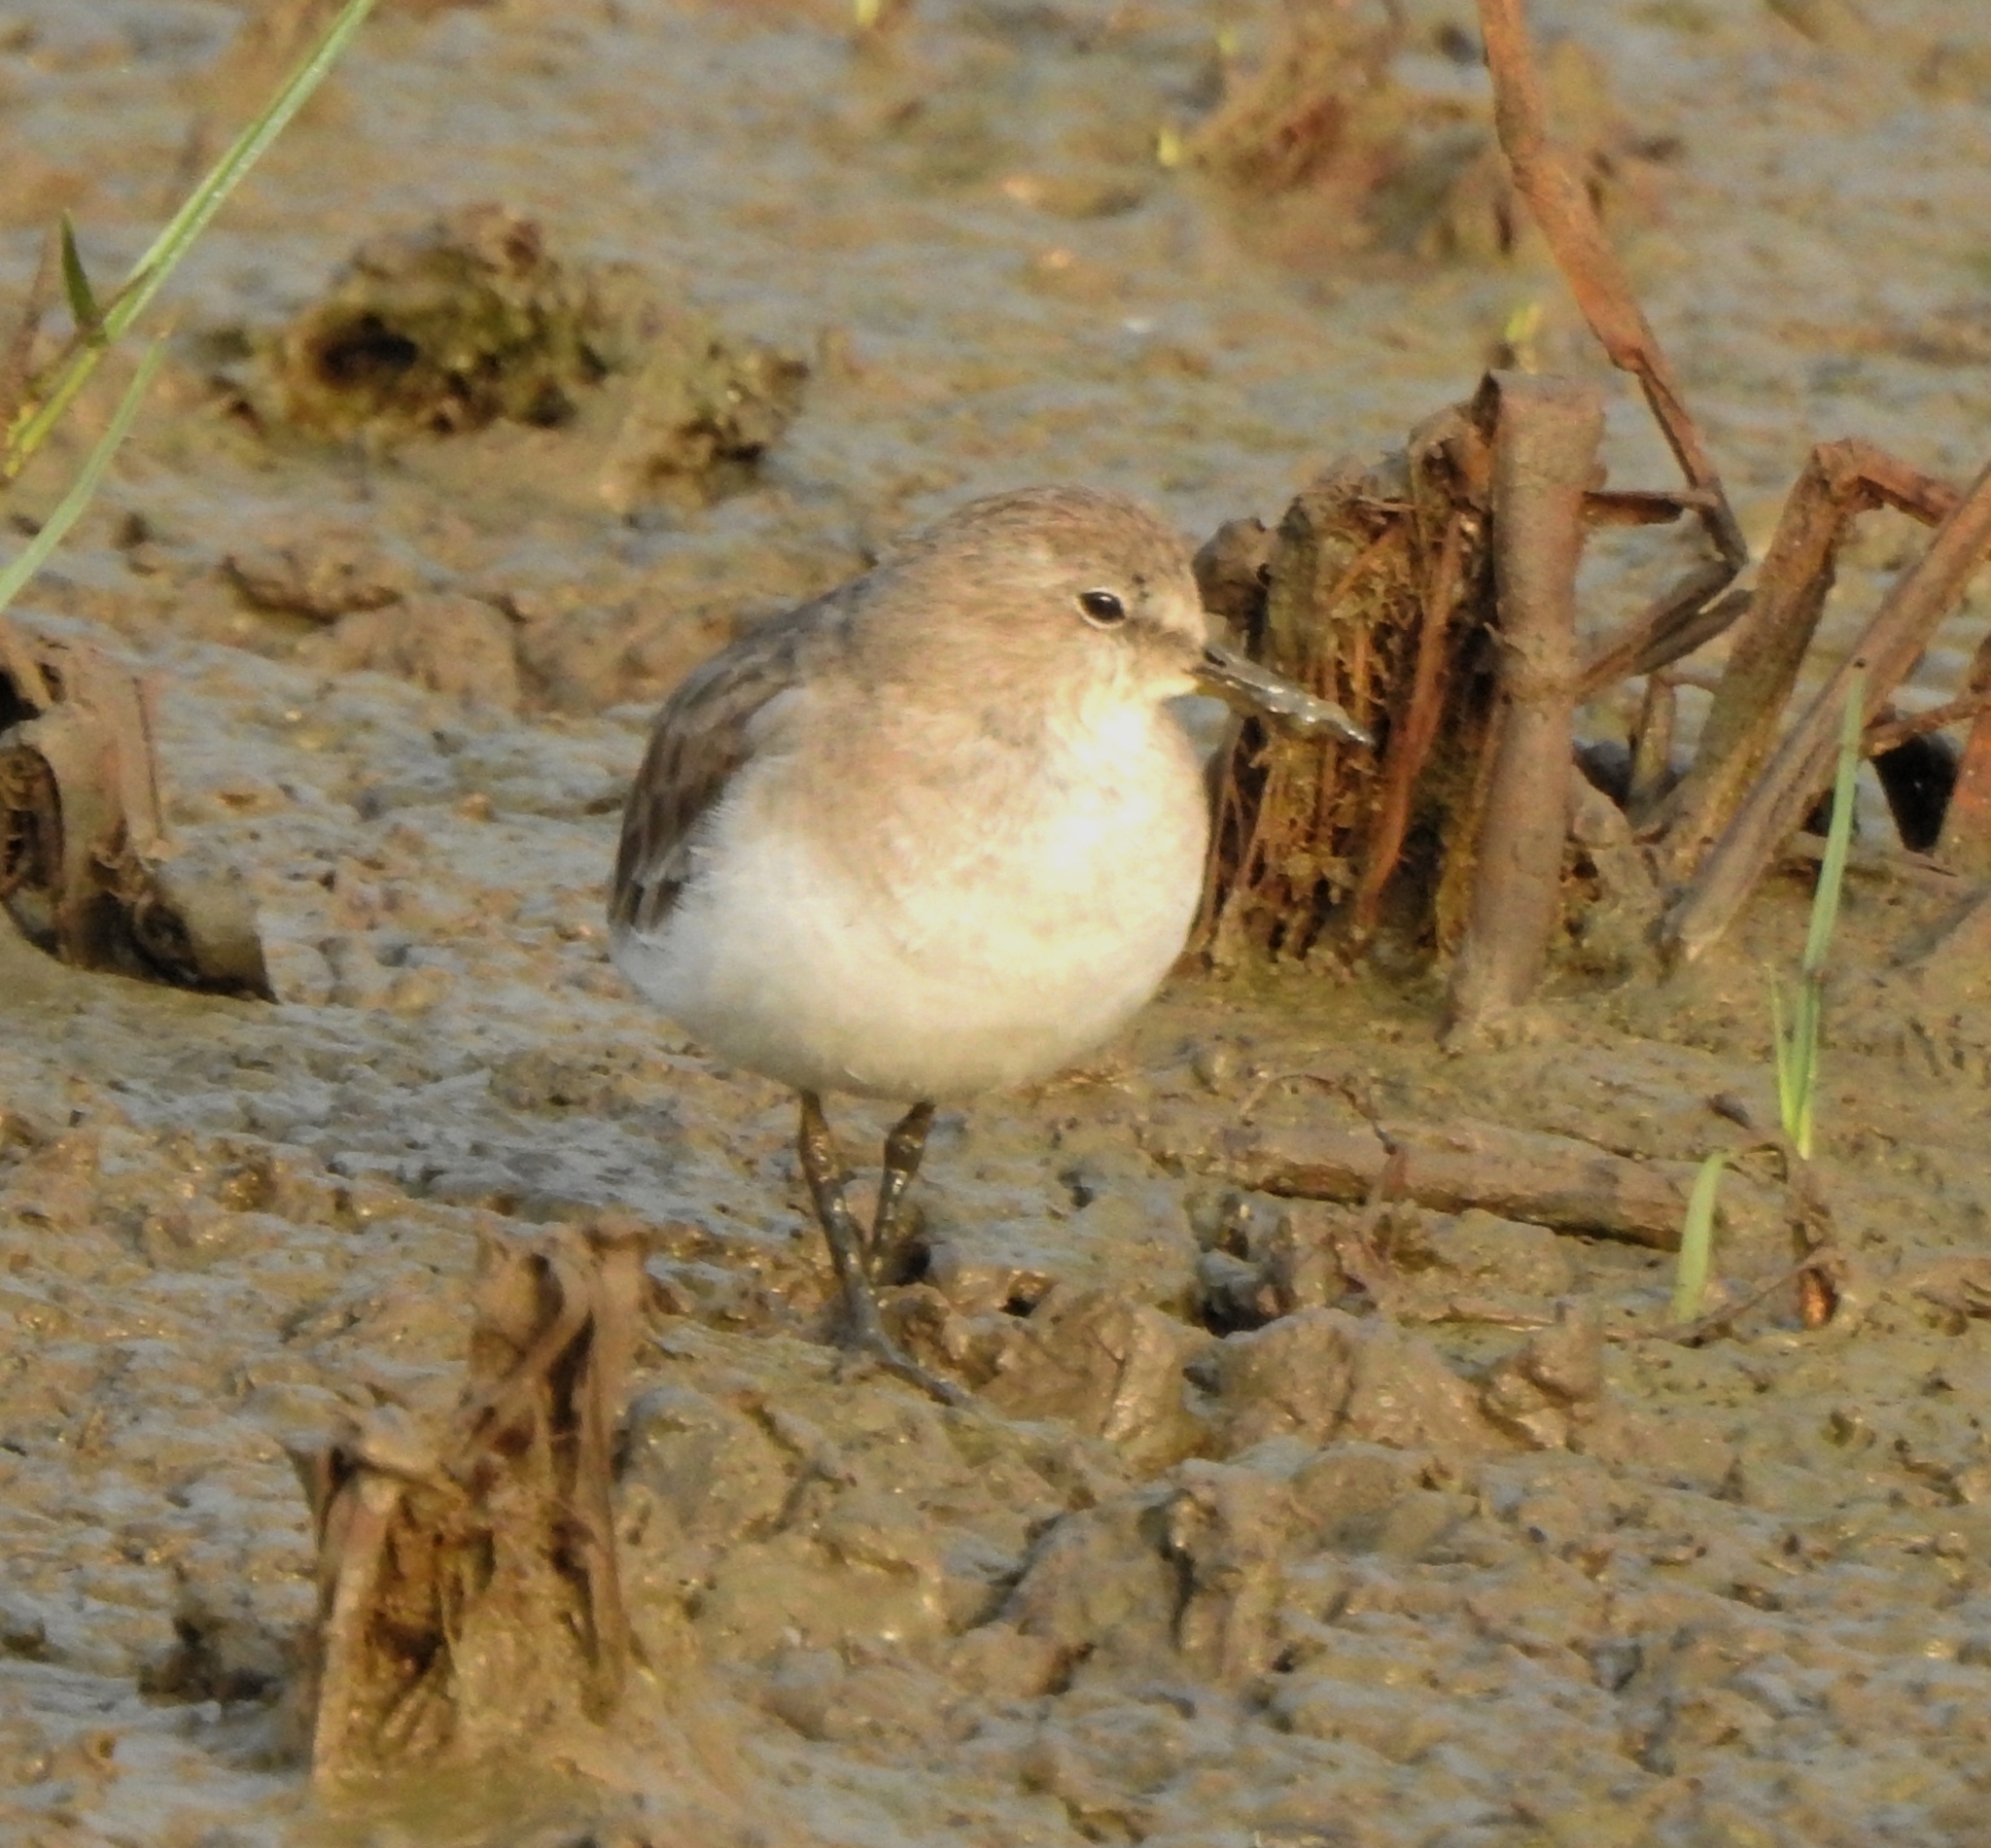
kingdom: Animalia
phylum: Chordata
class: Aves
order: Charadriiformes
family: Scolopacidae
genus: Calidris
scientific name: Calidris temminckii
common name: Temminck's stint
